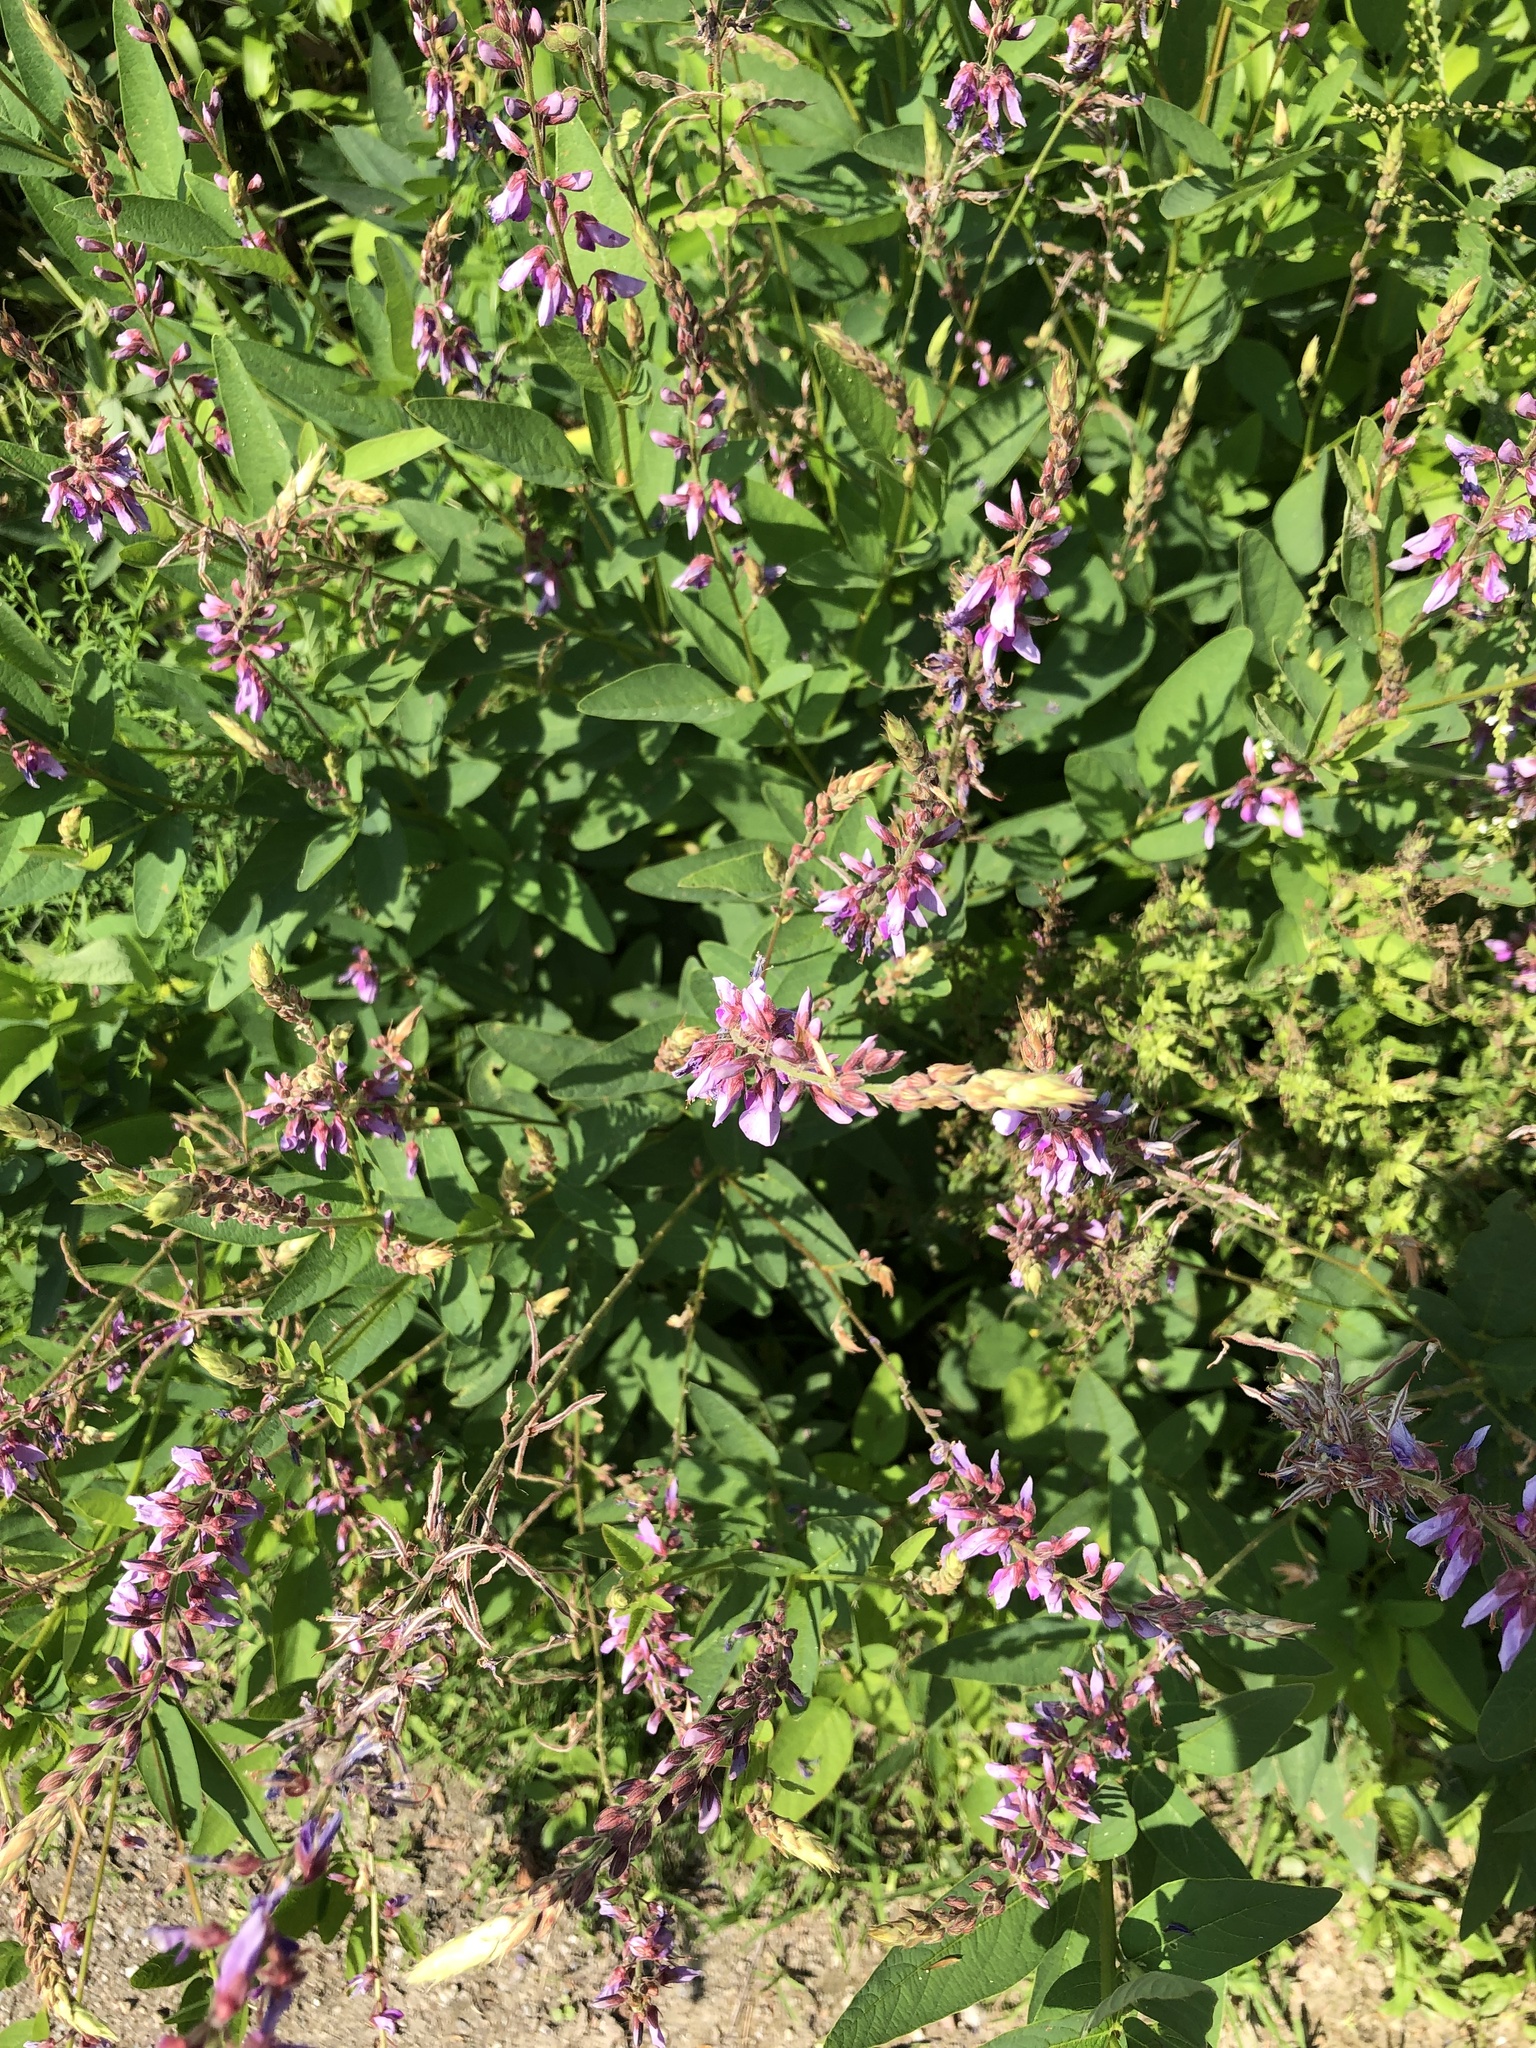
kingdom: Plantae
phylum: Tracheophyta
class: Magnoliopsida
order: Fabales
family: Fabaceae
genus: Desmodium
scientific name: Desmodium canadense
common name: Canada tick-trefoil
